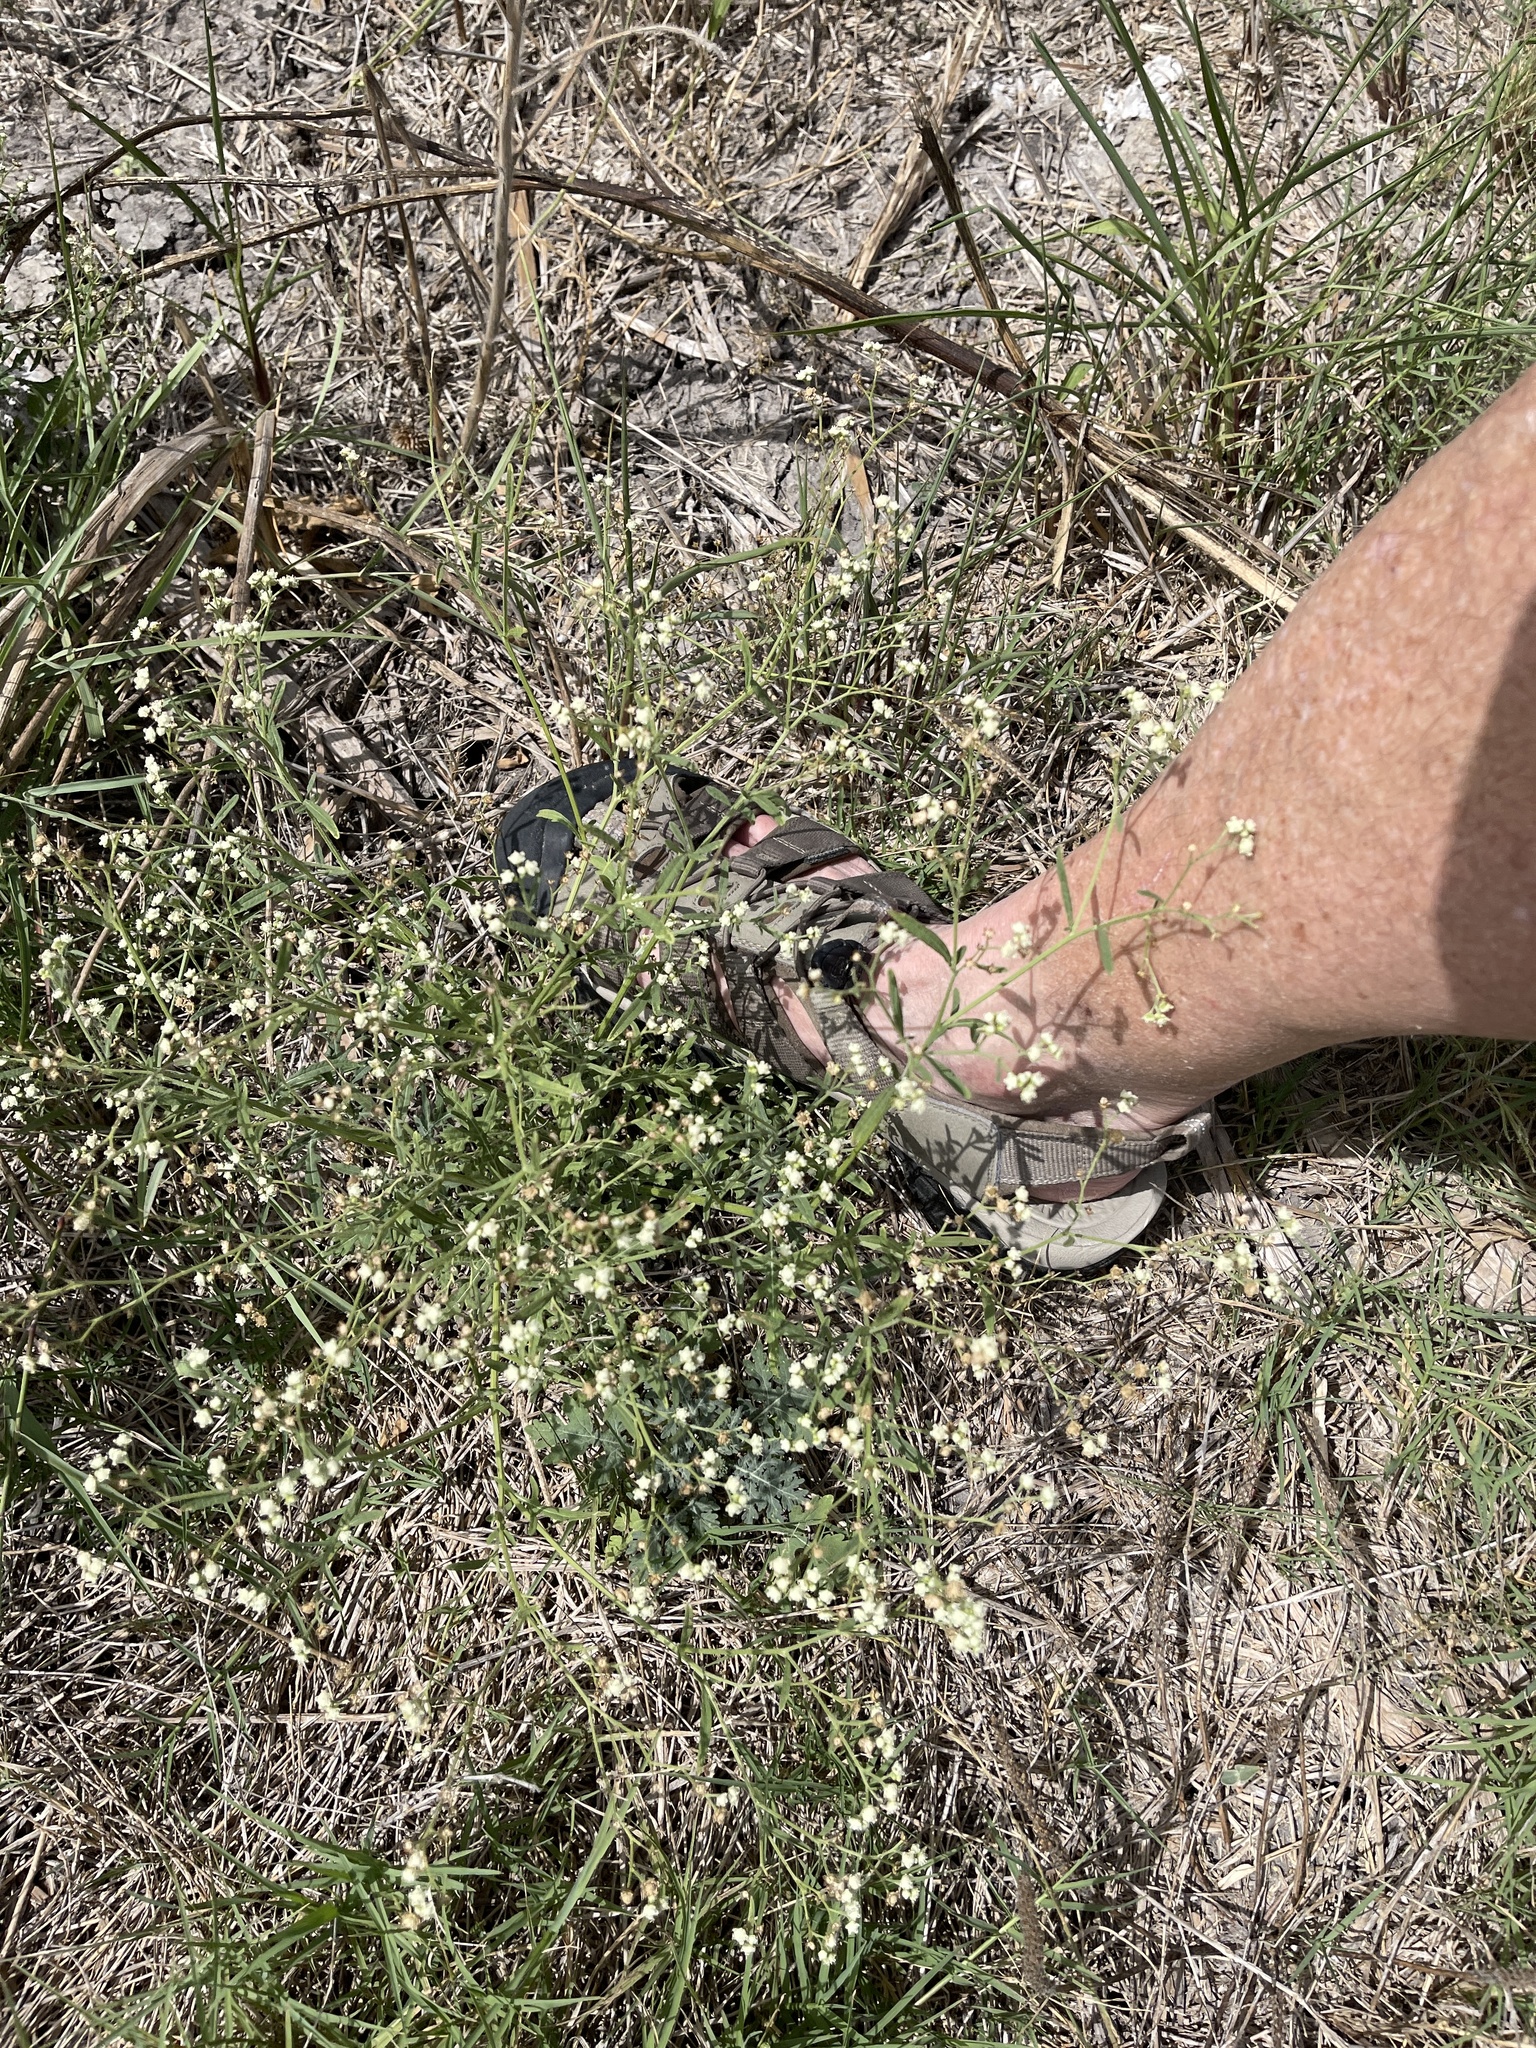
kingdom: Plantae
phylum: Tracheophyta
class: Magnoliopsida
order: Asterales
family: Asteraceae
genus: Parthenium
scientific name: Parthenium hysterophorus
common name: Santa maria feverfew
